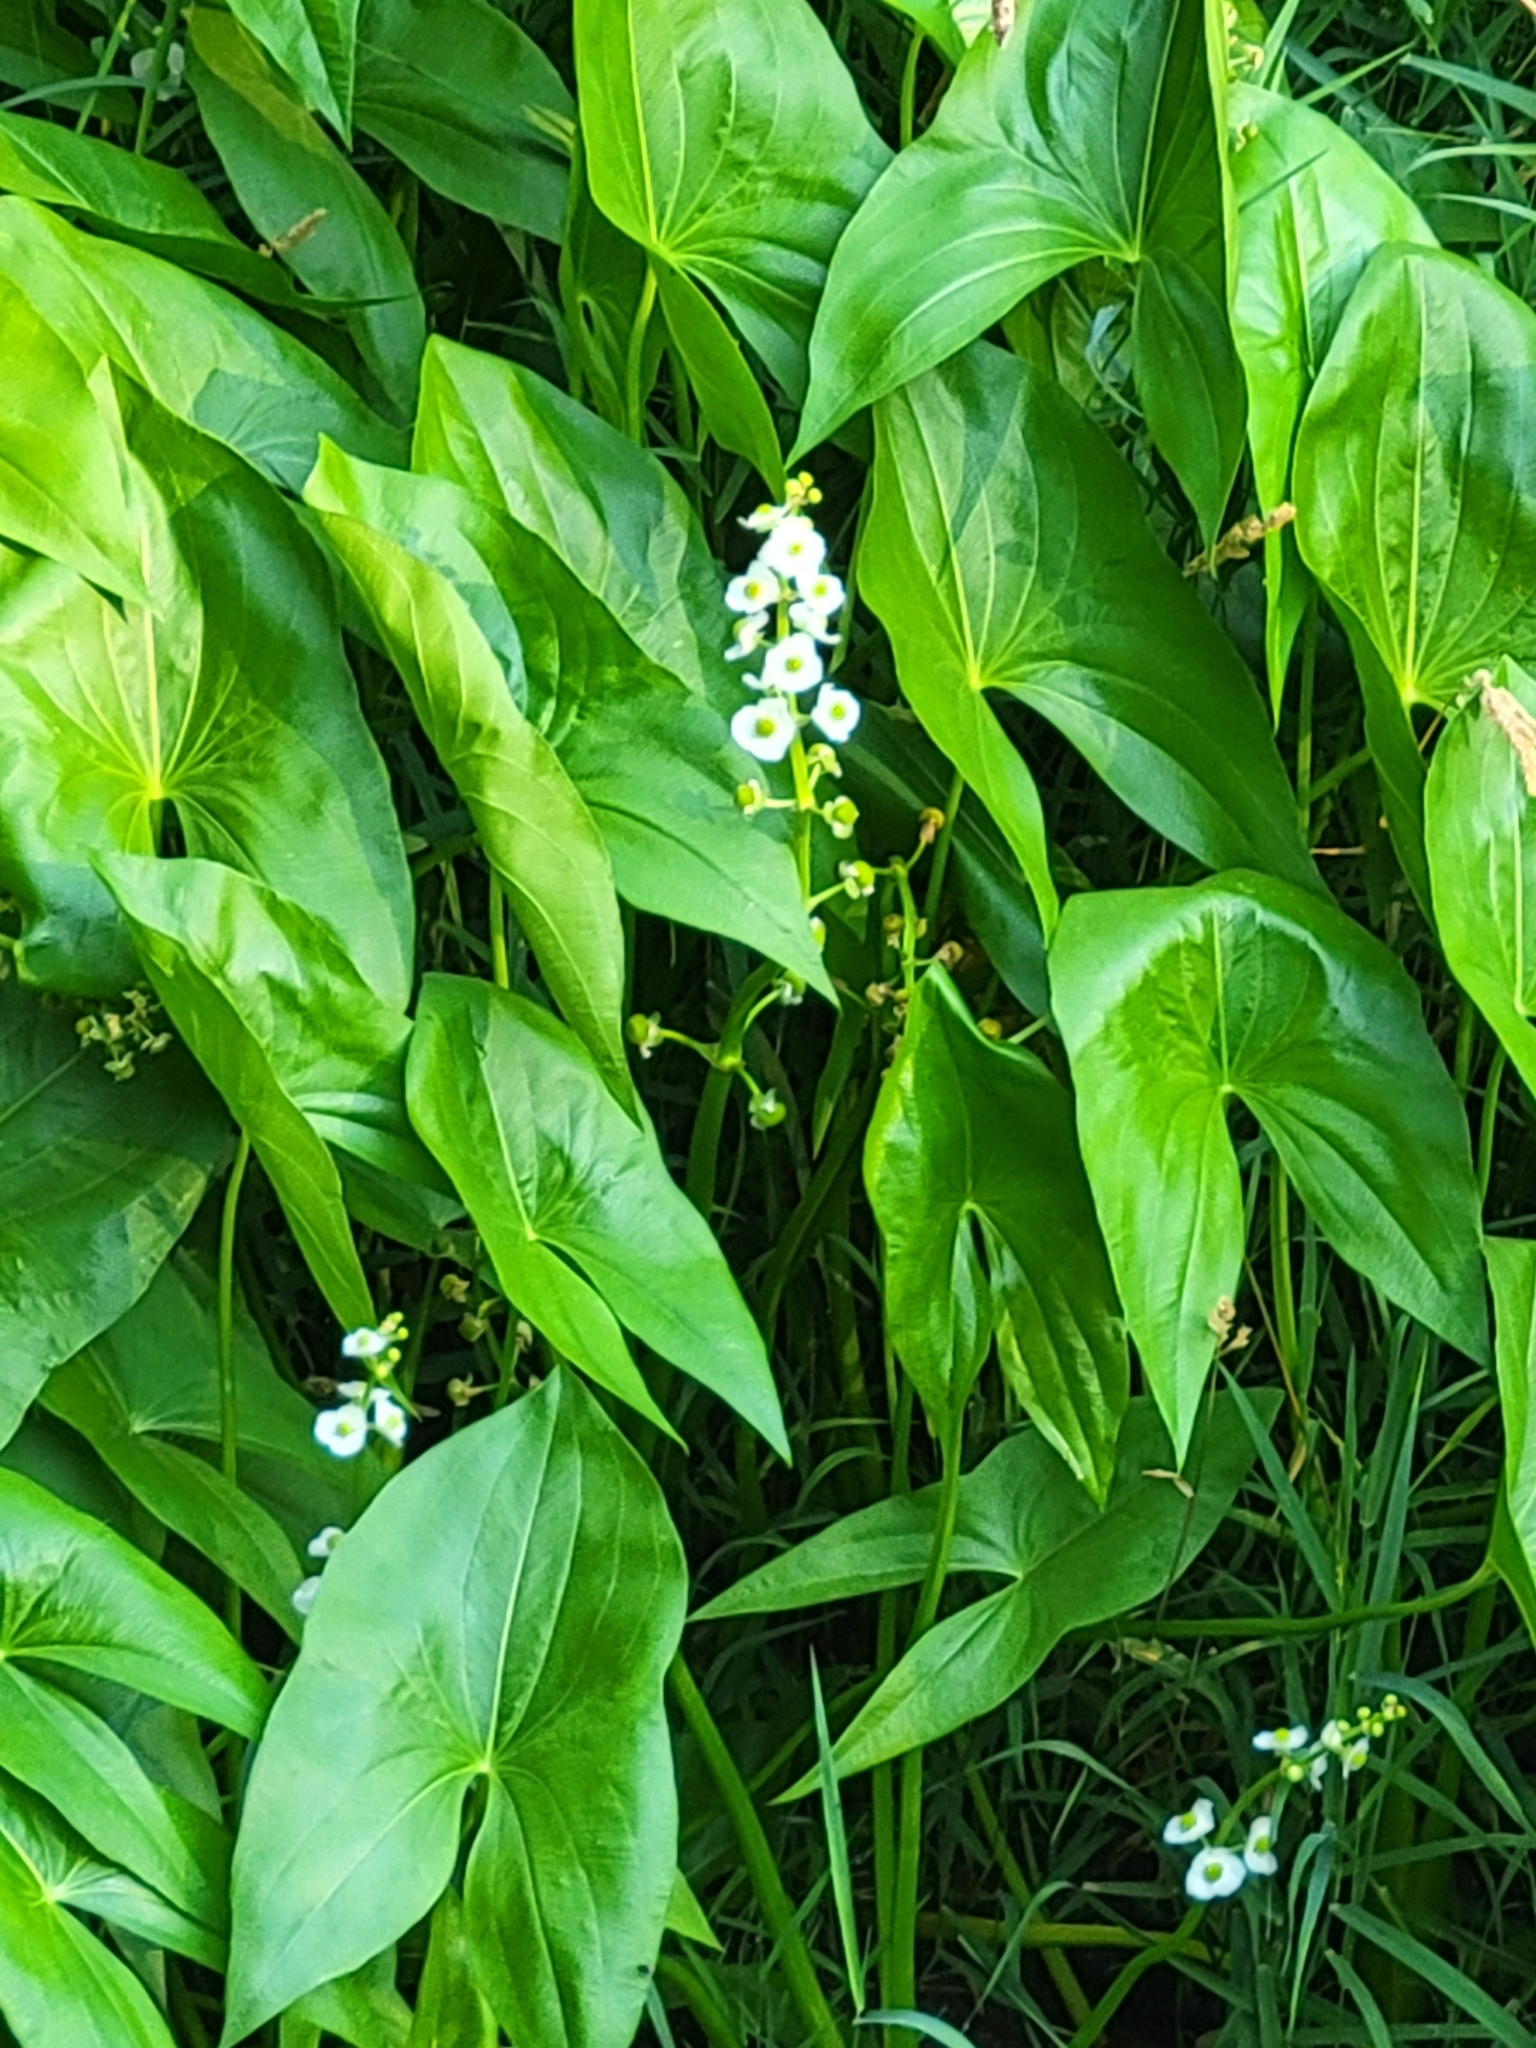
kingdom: Plantae
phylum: Tracheophyta
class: Liliopsida
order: Alismatales
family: Alismataceae
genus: Sagittaria
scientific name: Sagittaria latifolia
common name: Duck-potato
